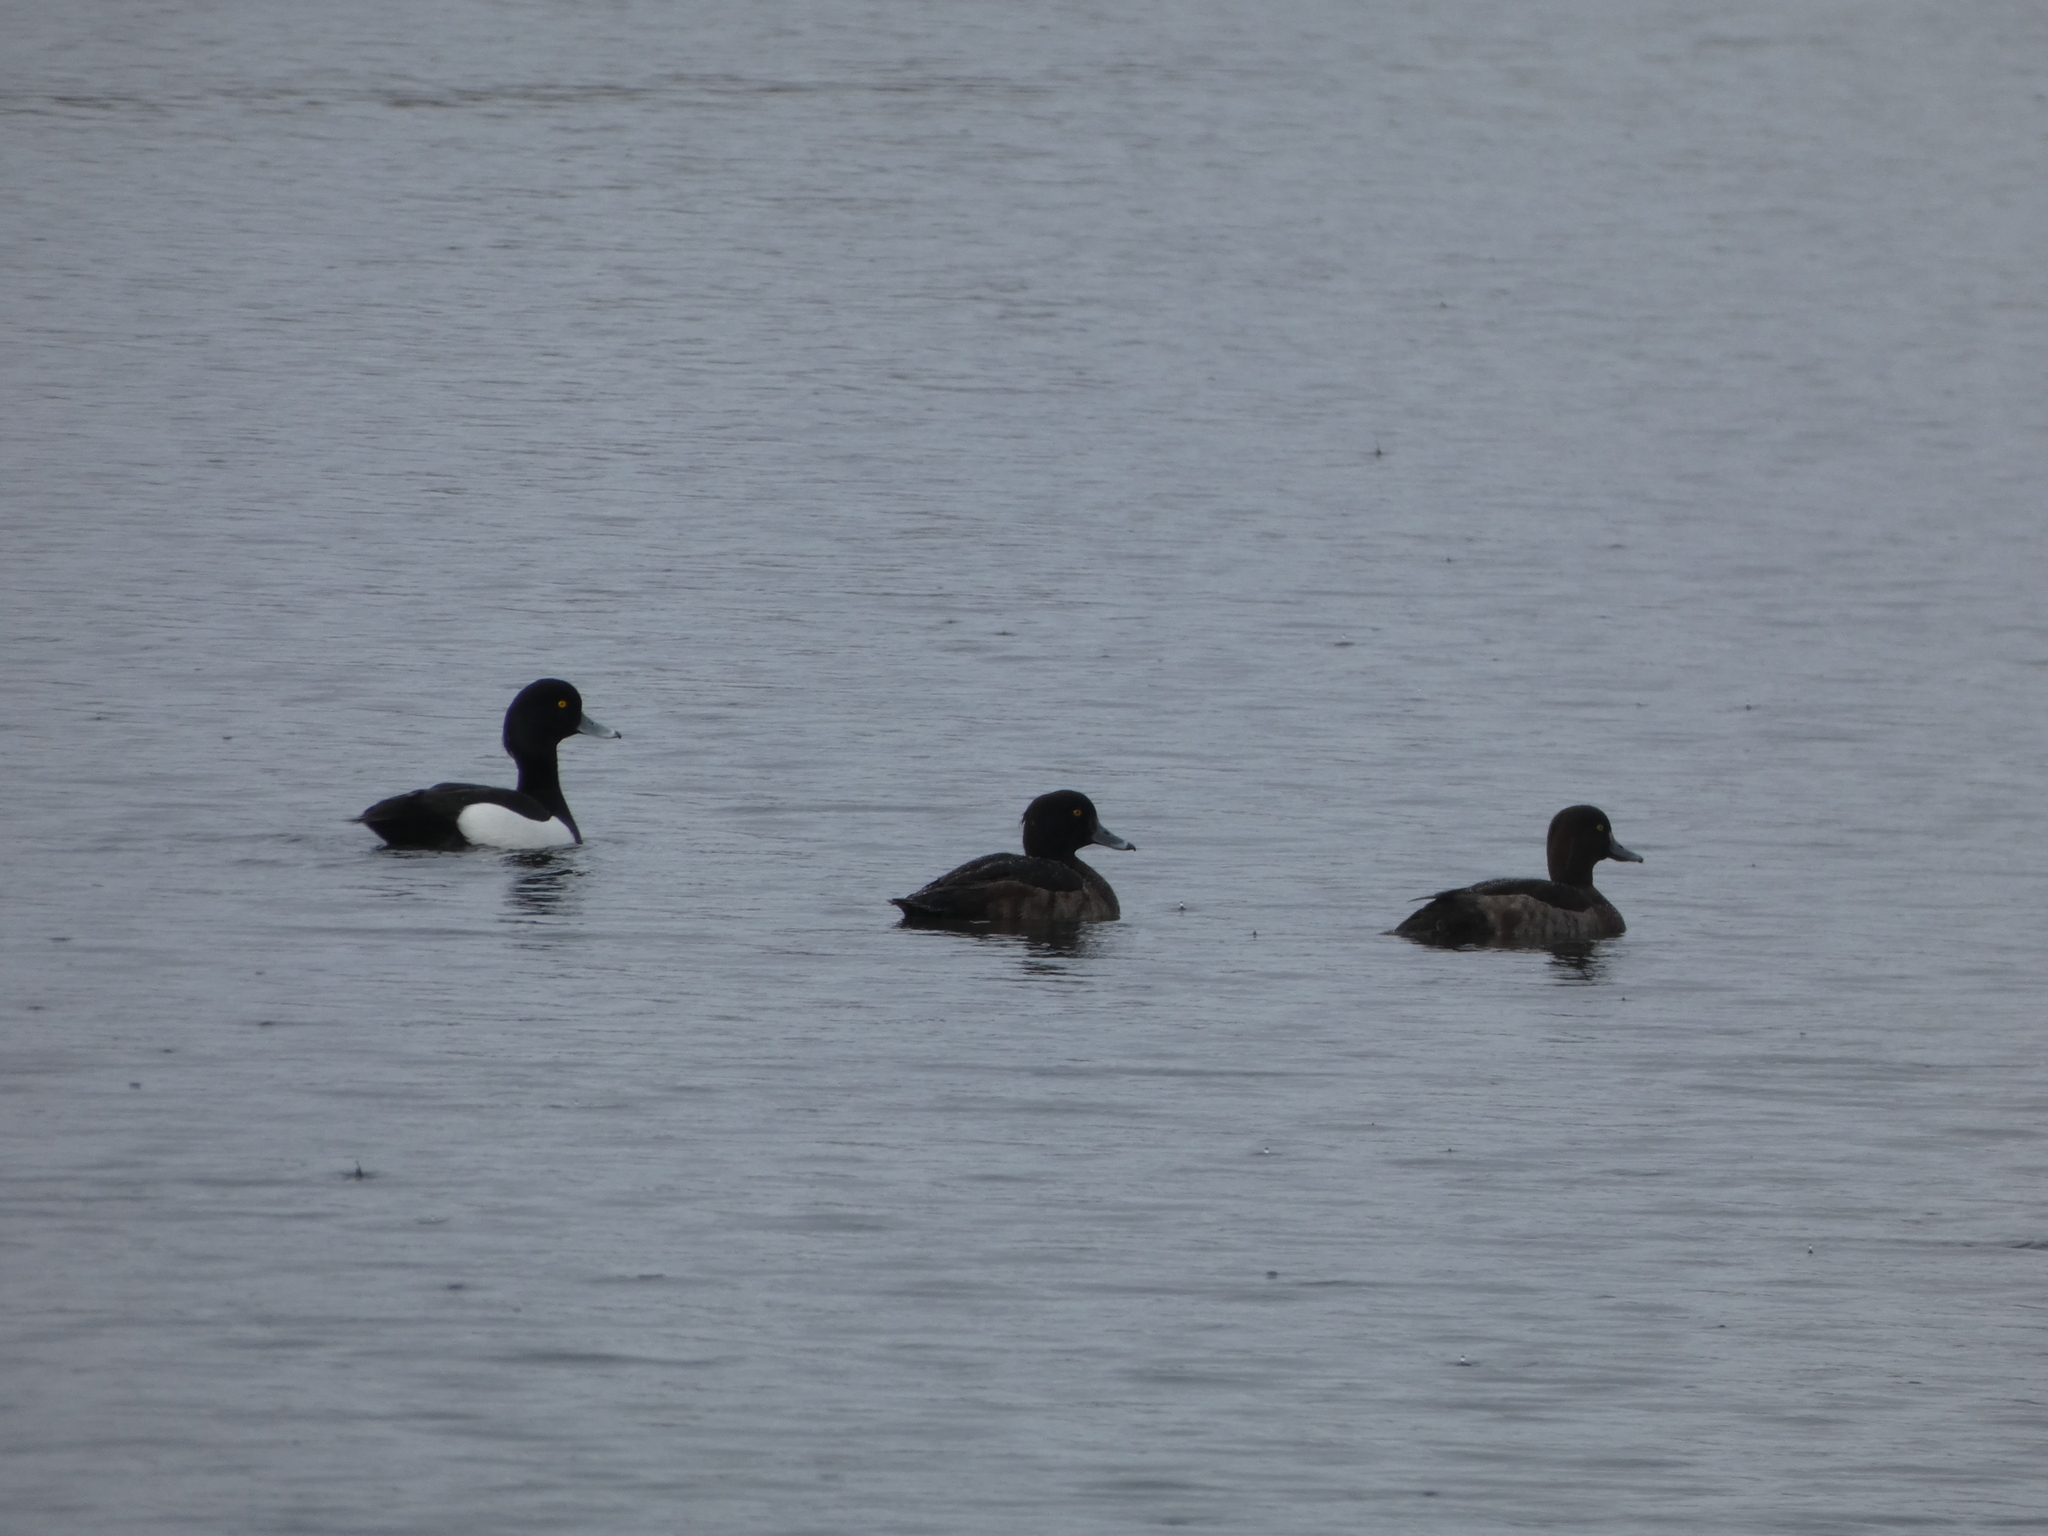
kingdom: Animalia
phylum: Chordata
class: Aves
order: Anseriformes
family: Anatidae
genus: Aythya
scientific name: Aythya fuligula
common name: Tufted duck
